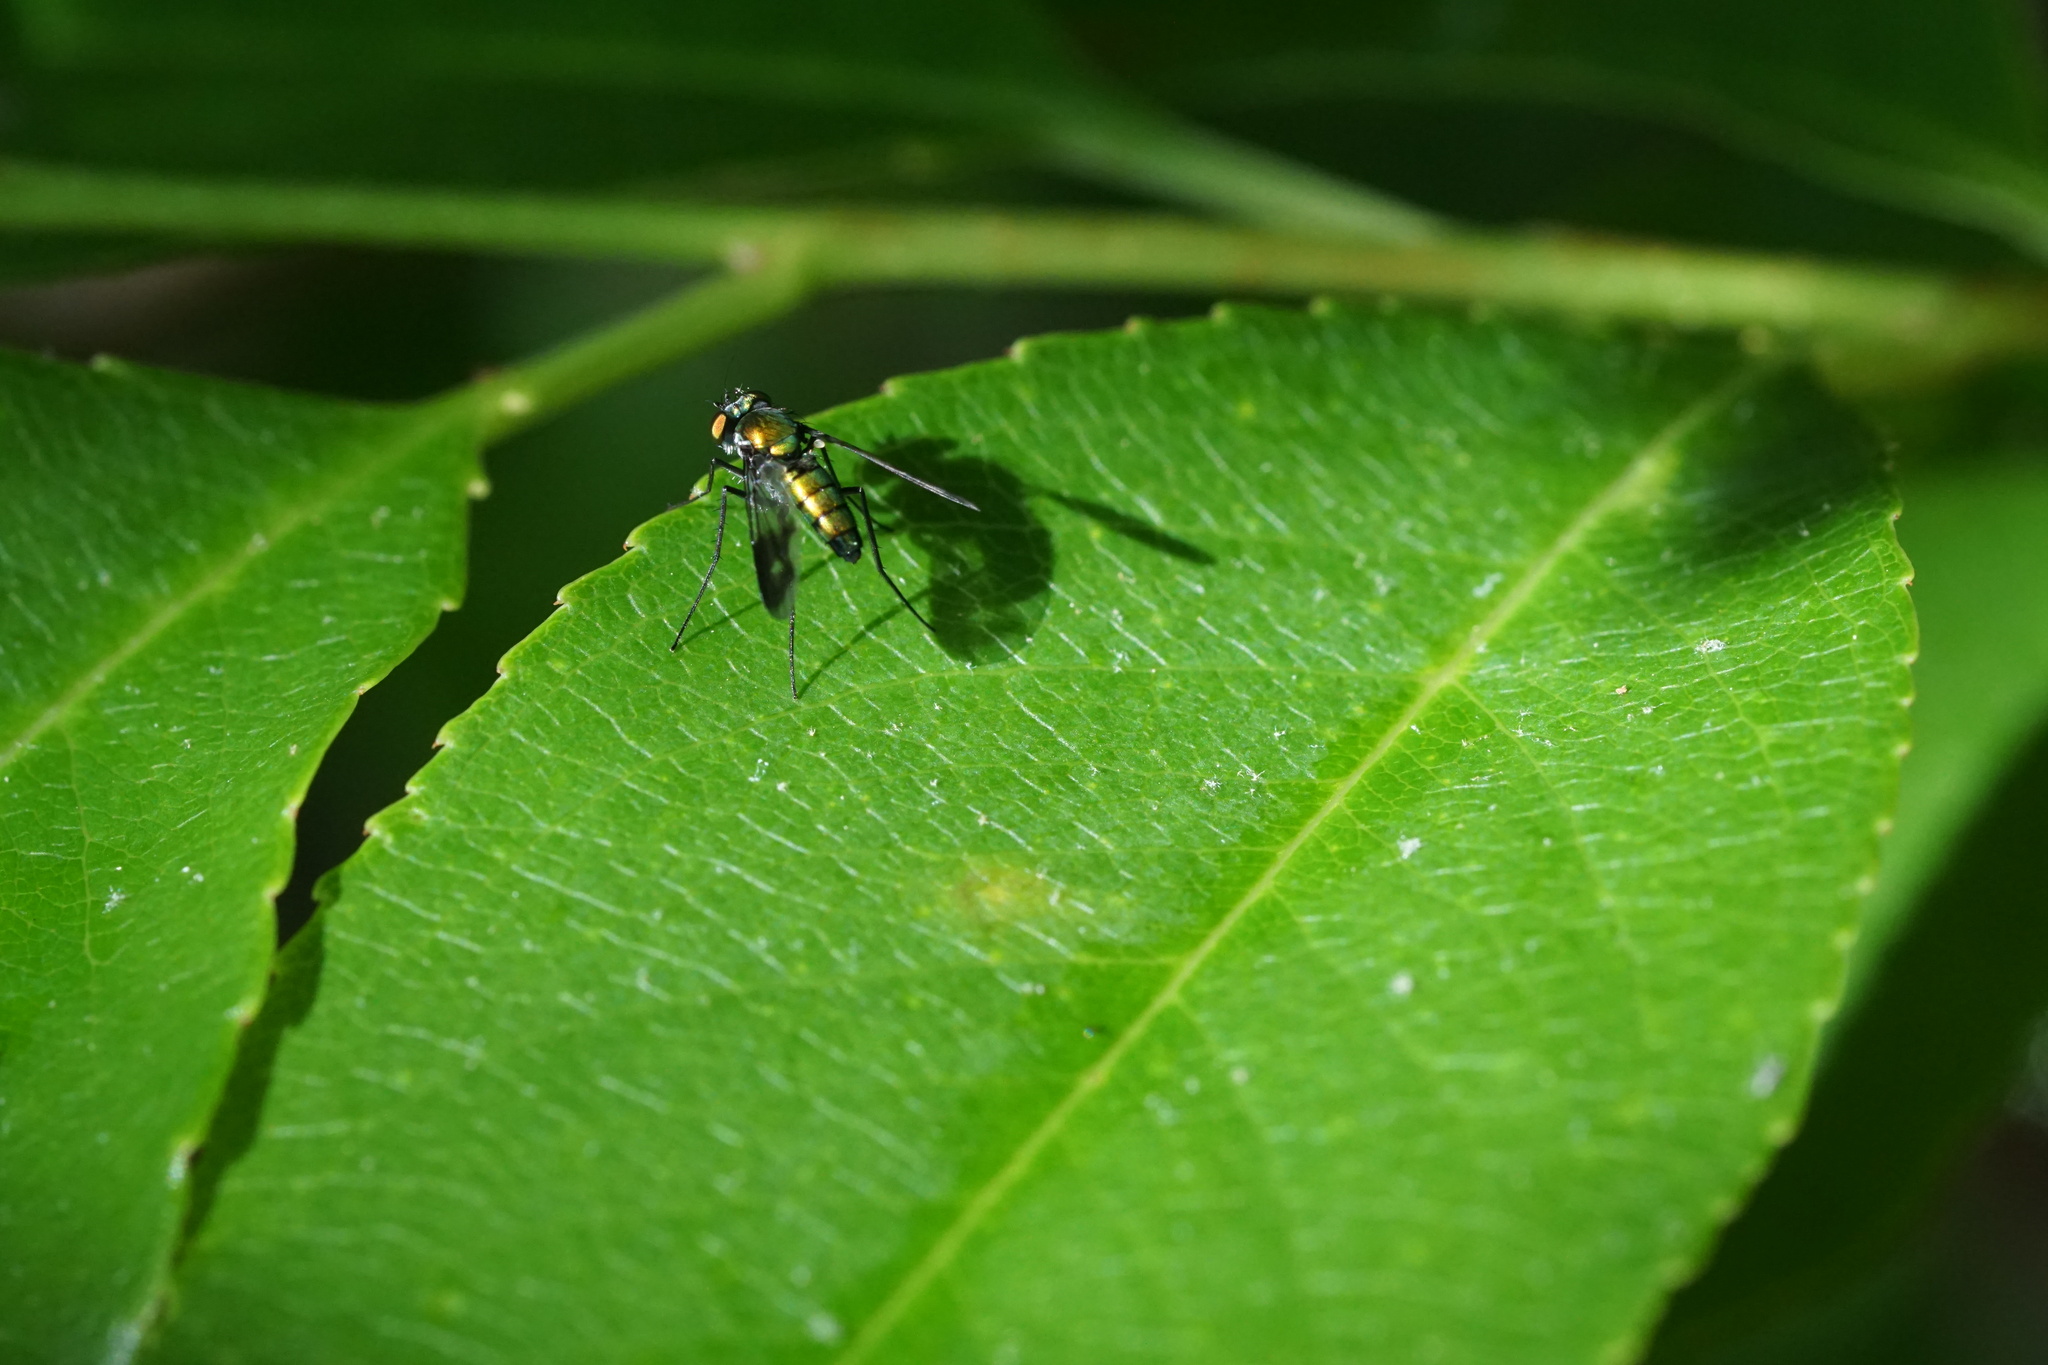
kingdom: Animalia
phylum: Arthropoda
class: Insecta
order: Diptera
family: Dolichopodidae
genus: Condylostylus
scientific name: Condylostylus patibulatus
